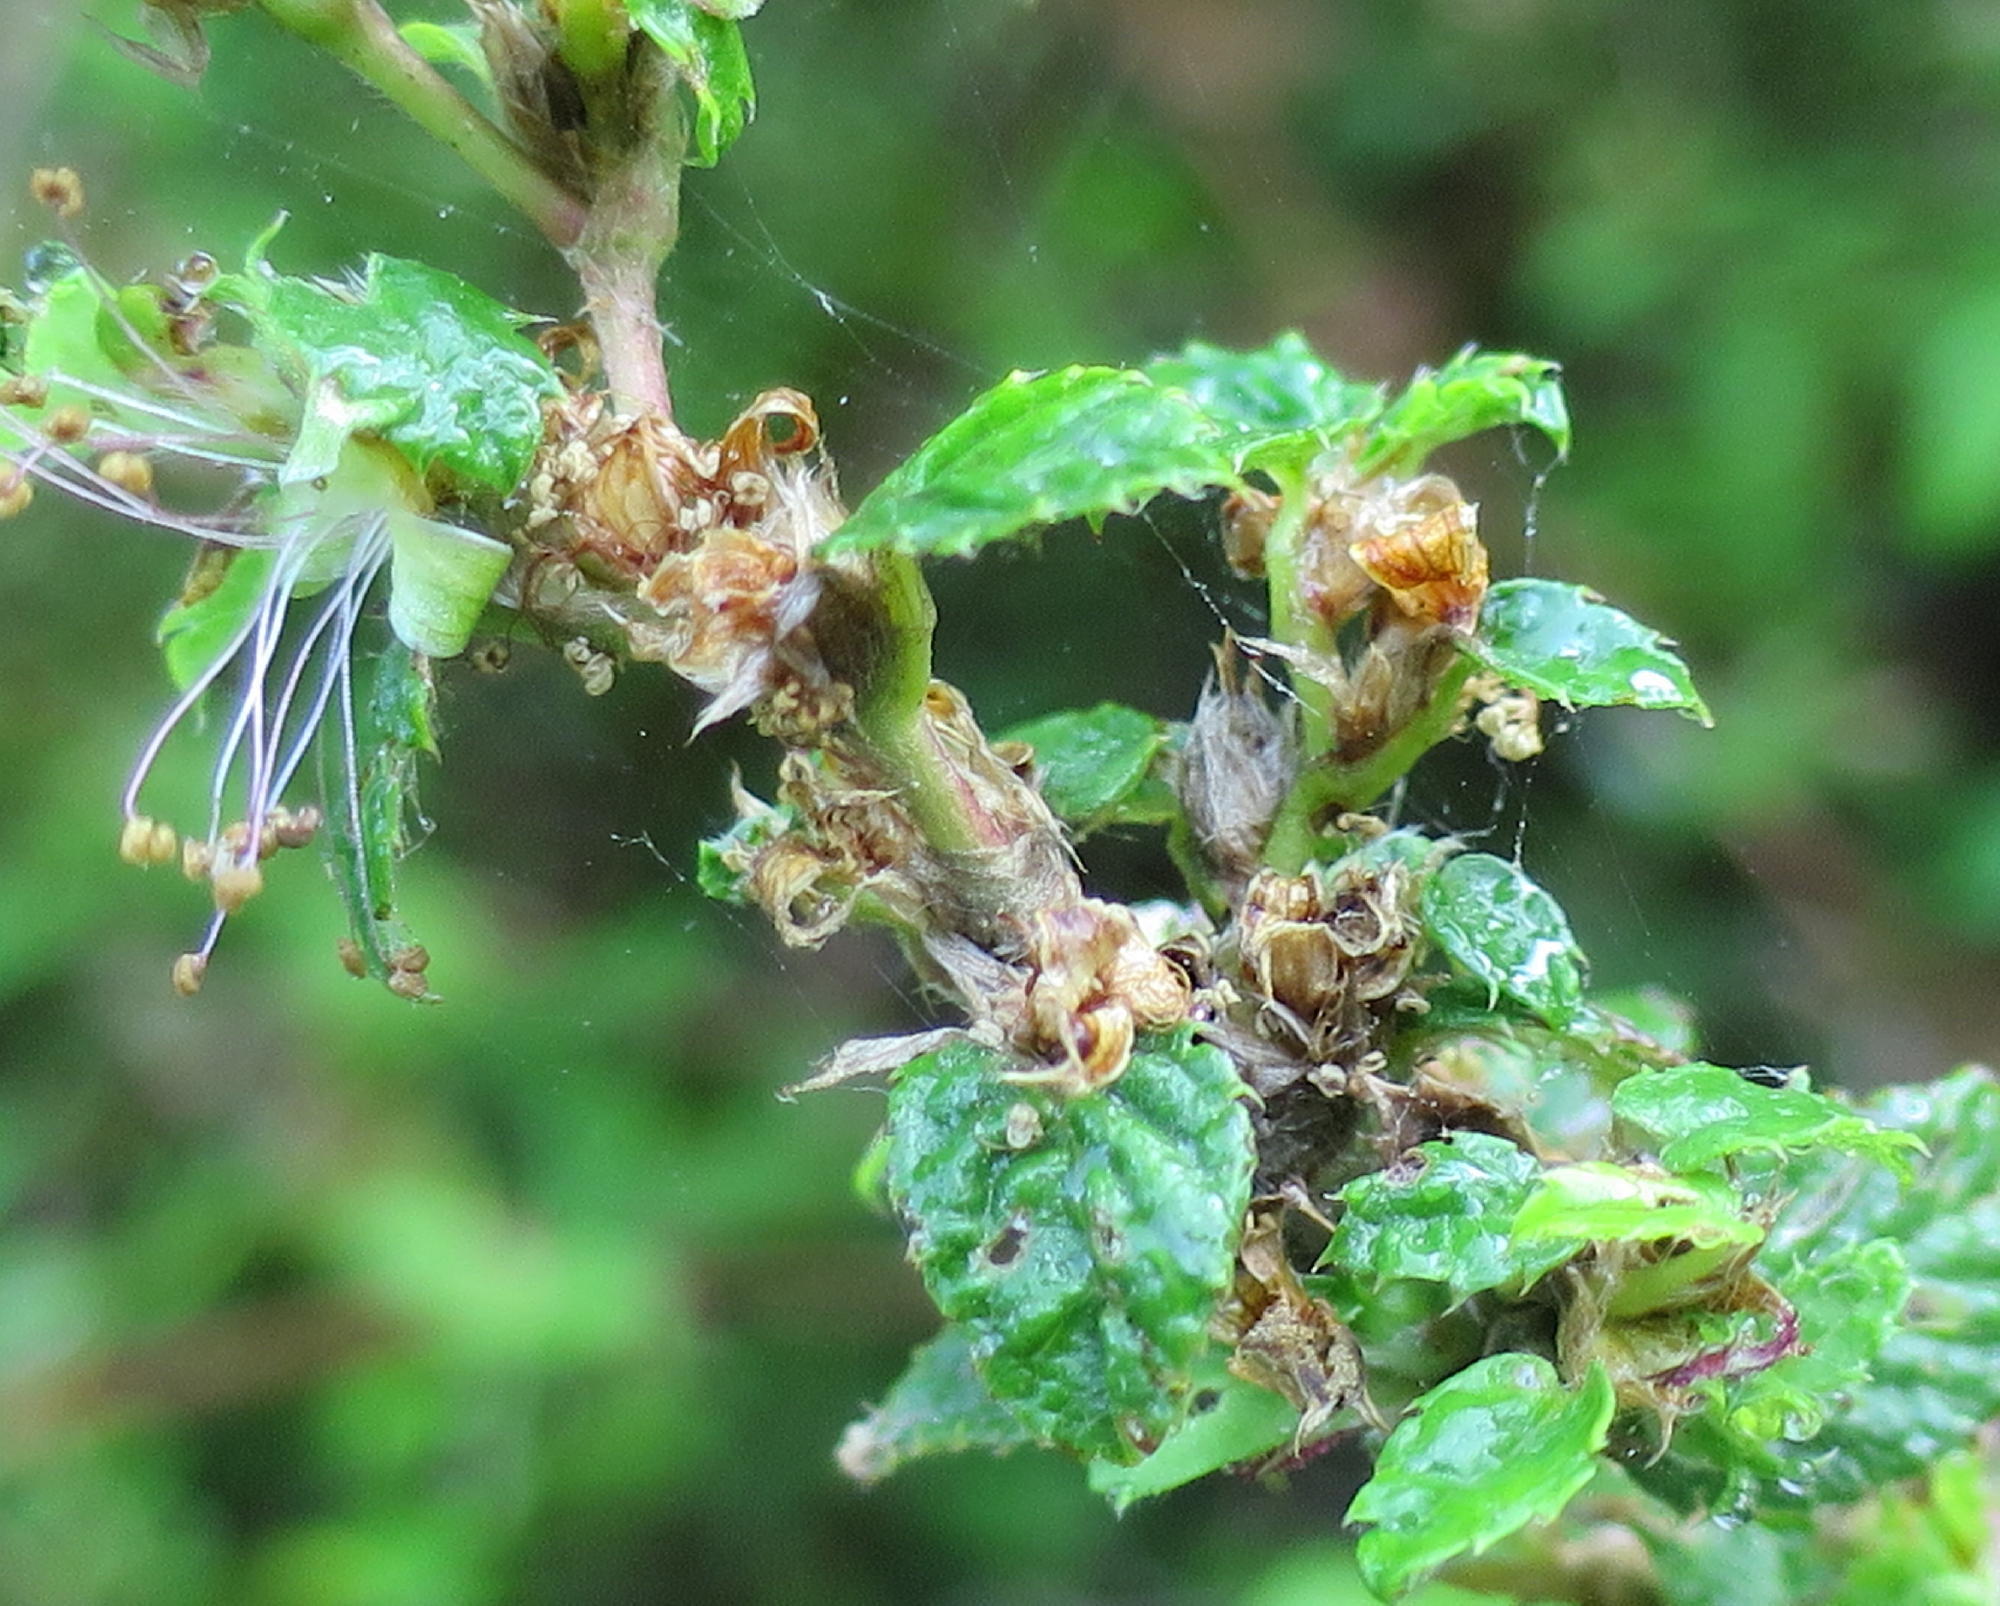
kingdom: Plantae
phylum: Tracheophyta
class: Magnoliopsida
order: Rosales
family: Rosaceae
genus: Cliffortia
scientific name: Cliffortia odorata
